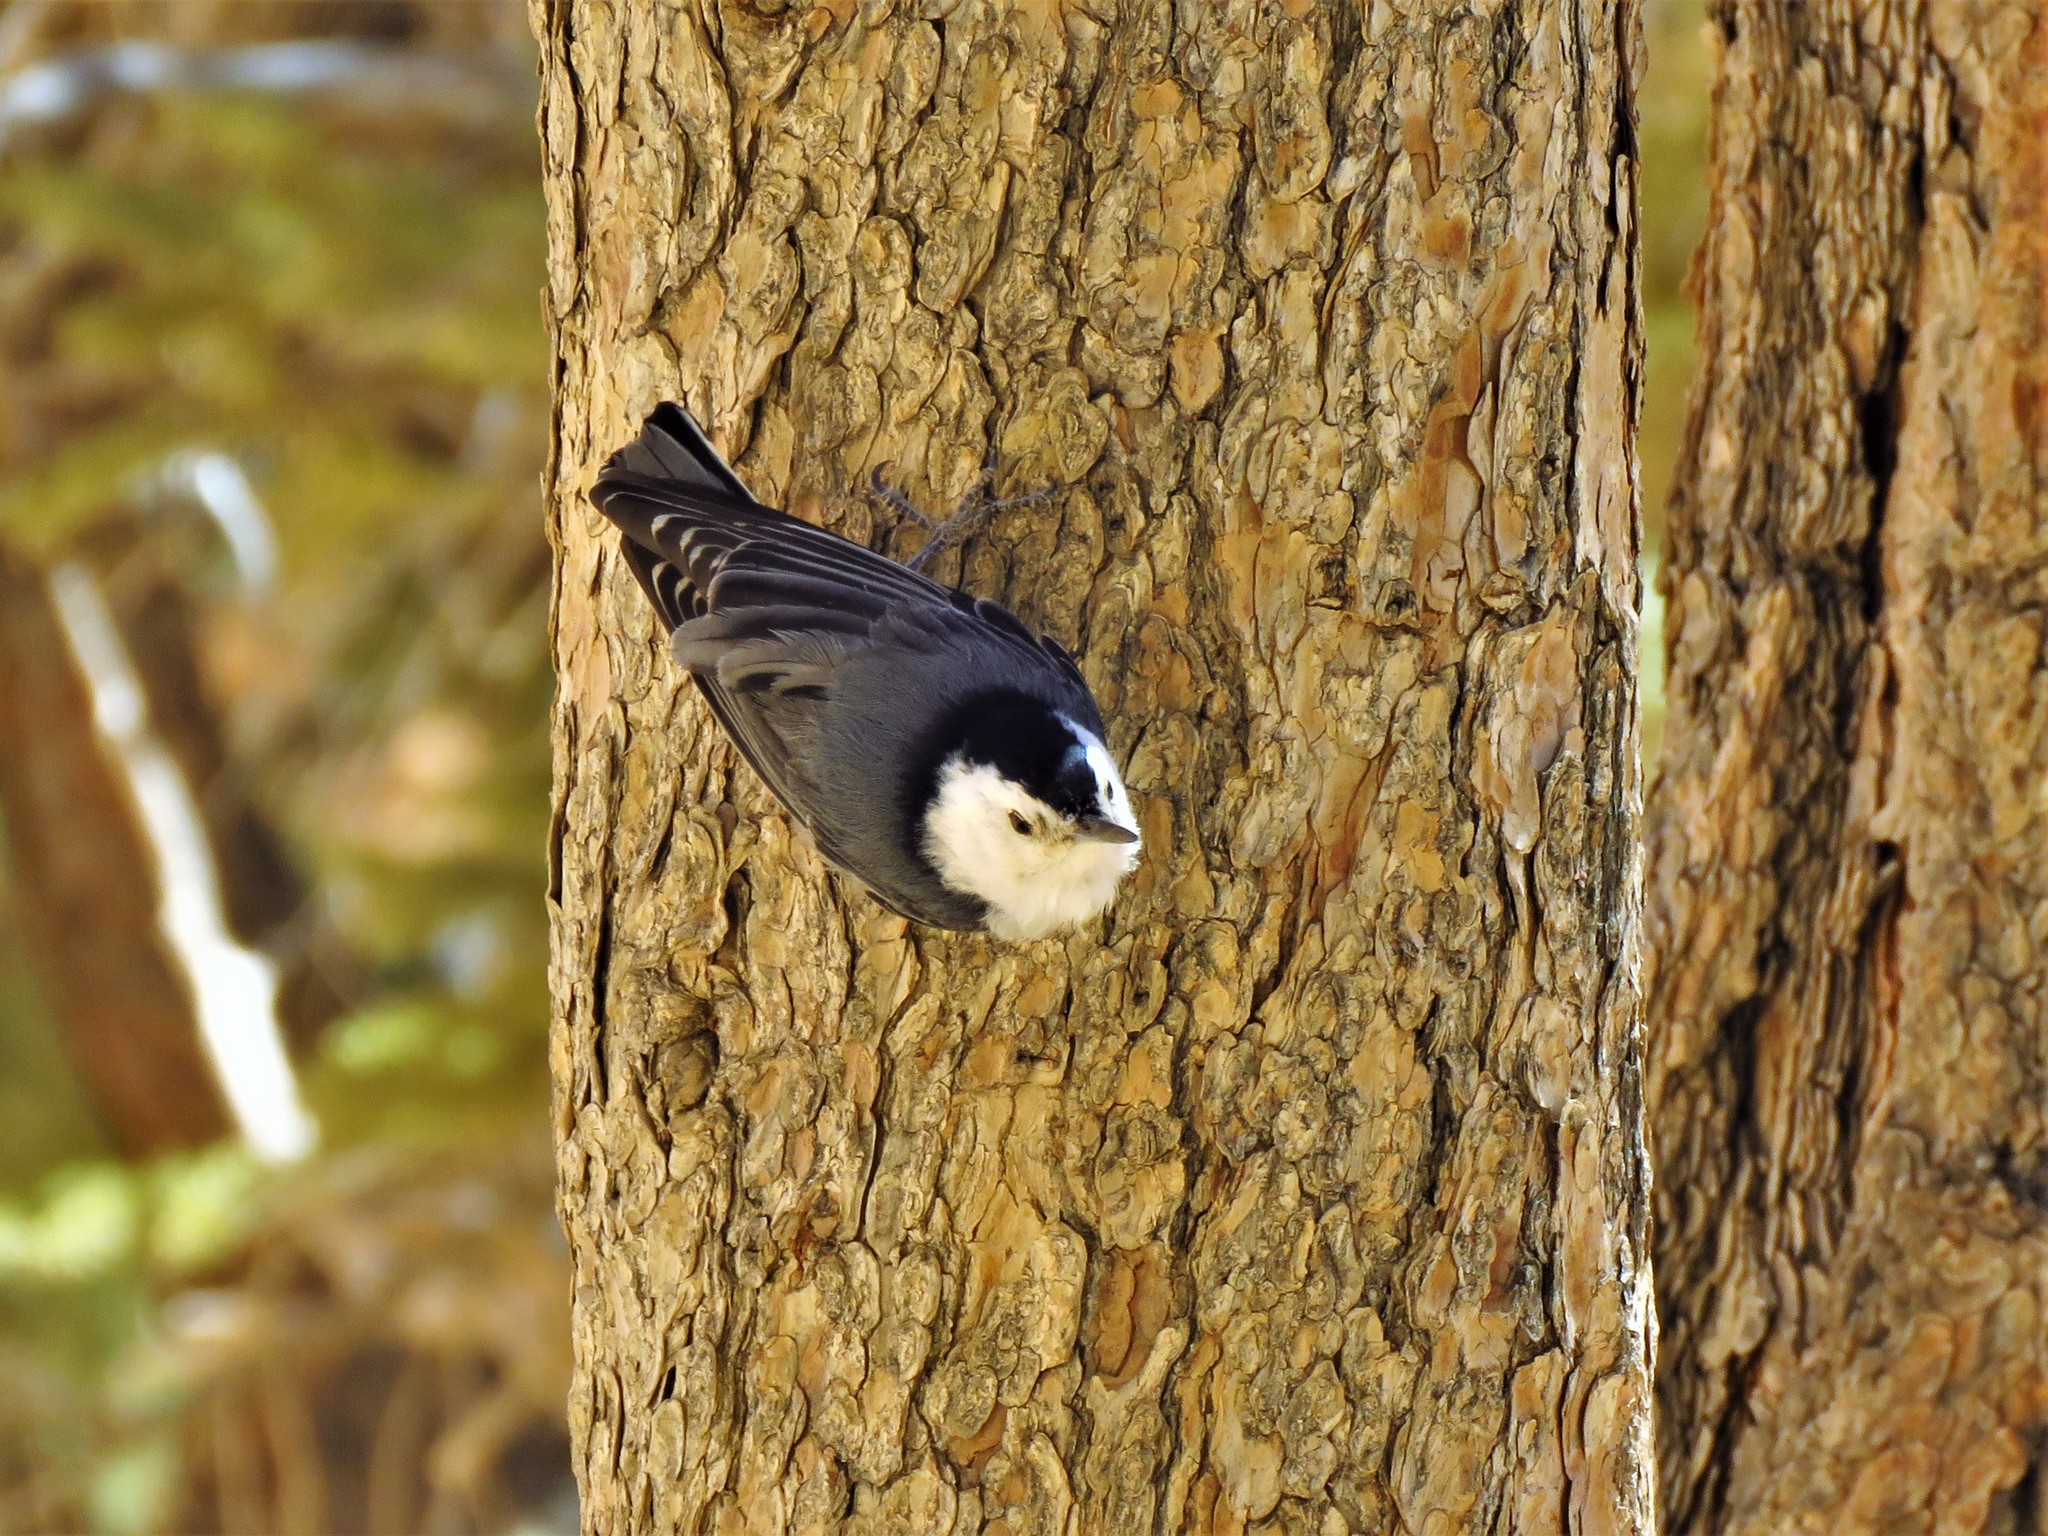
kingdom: Animalia
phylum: Chordata
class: Aves
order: Passeriformes
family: Sittidae
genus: Sitta
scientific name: Sitta carolinensis
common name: White-breasted nuthatch
